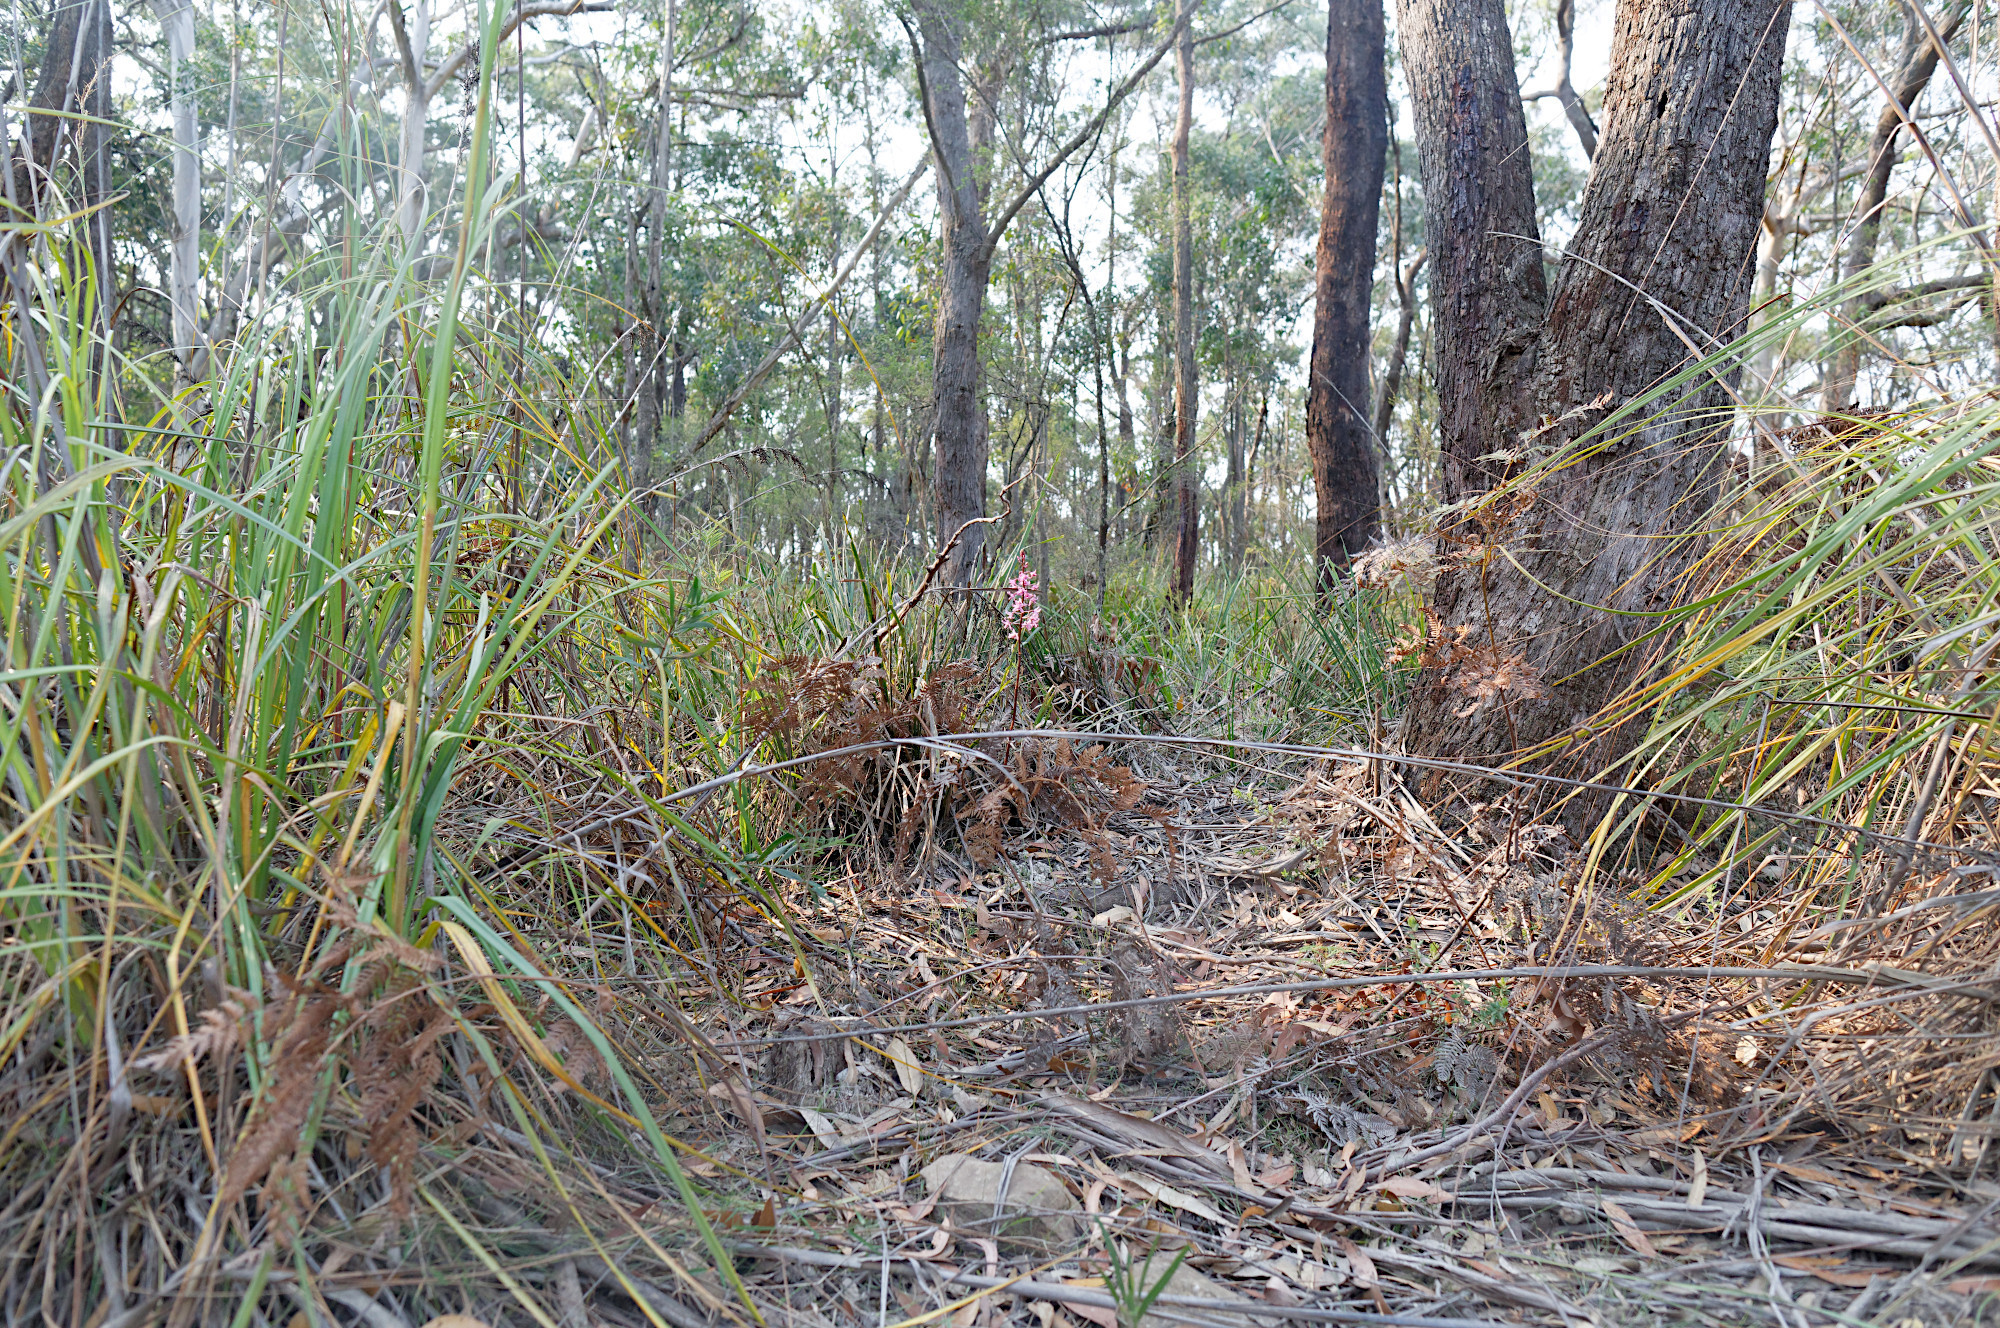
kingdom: Plantae
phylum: Tracheophyta
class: Liliopsida
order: Asparagales
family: Orchidaceae
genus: Dipodium
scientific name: Dipodium roseum
